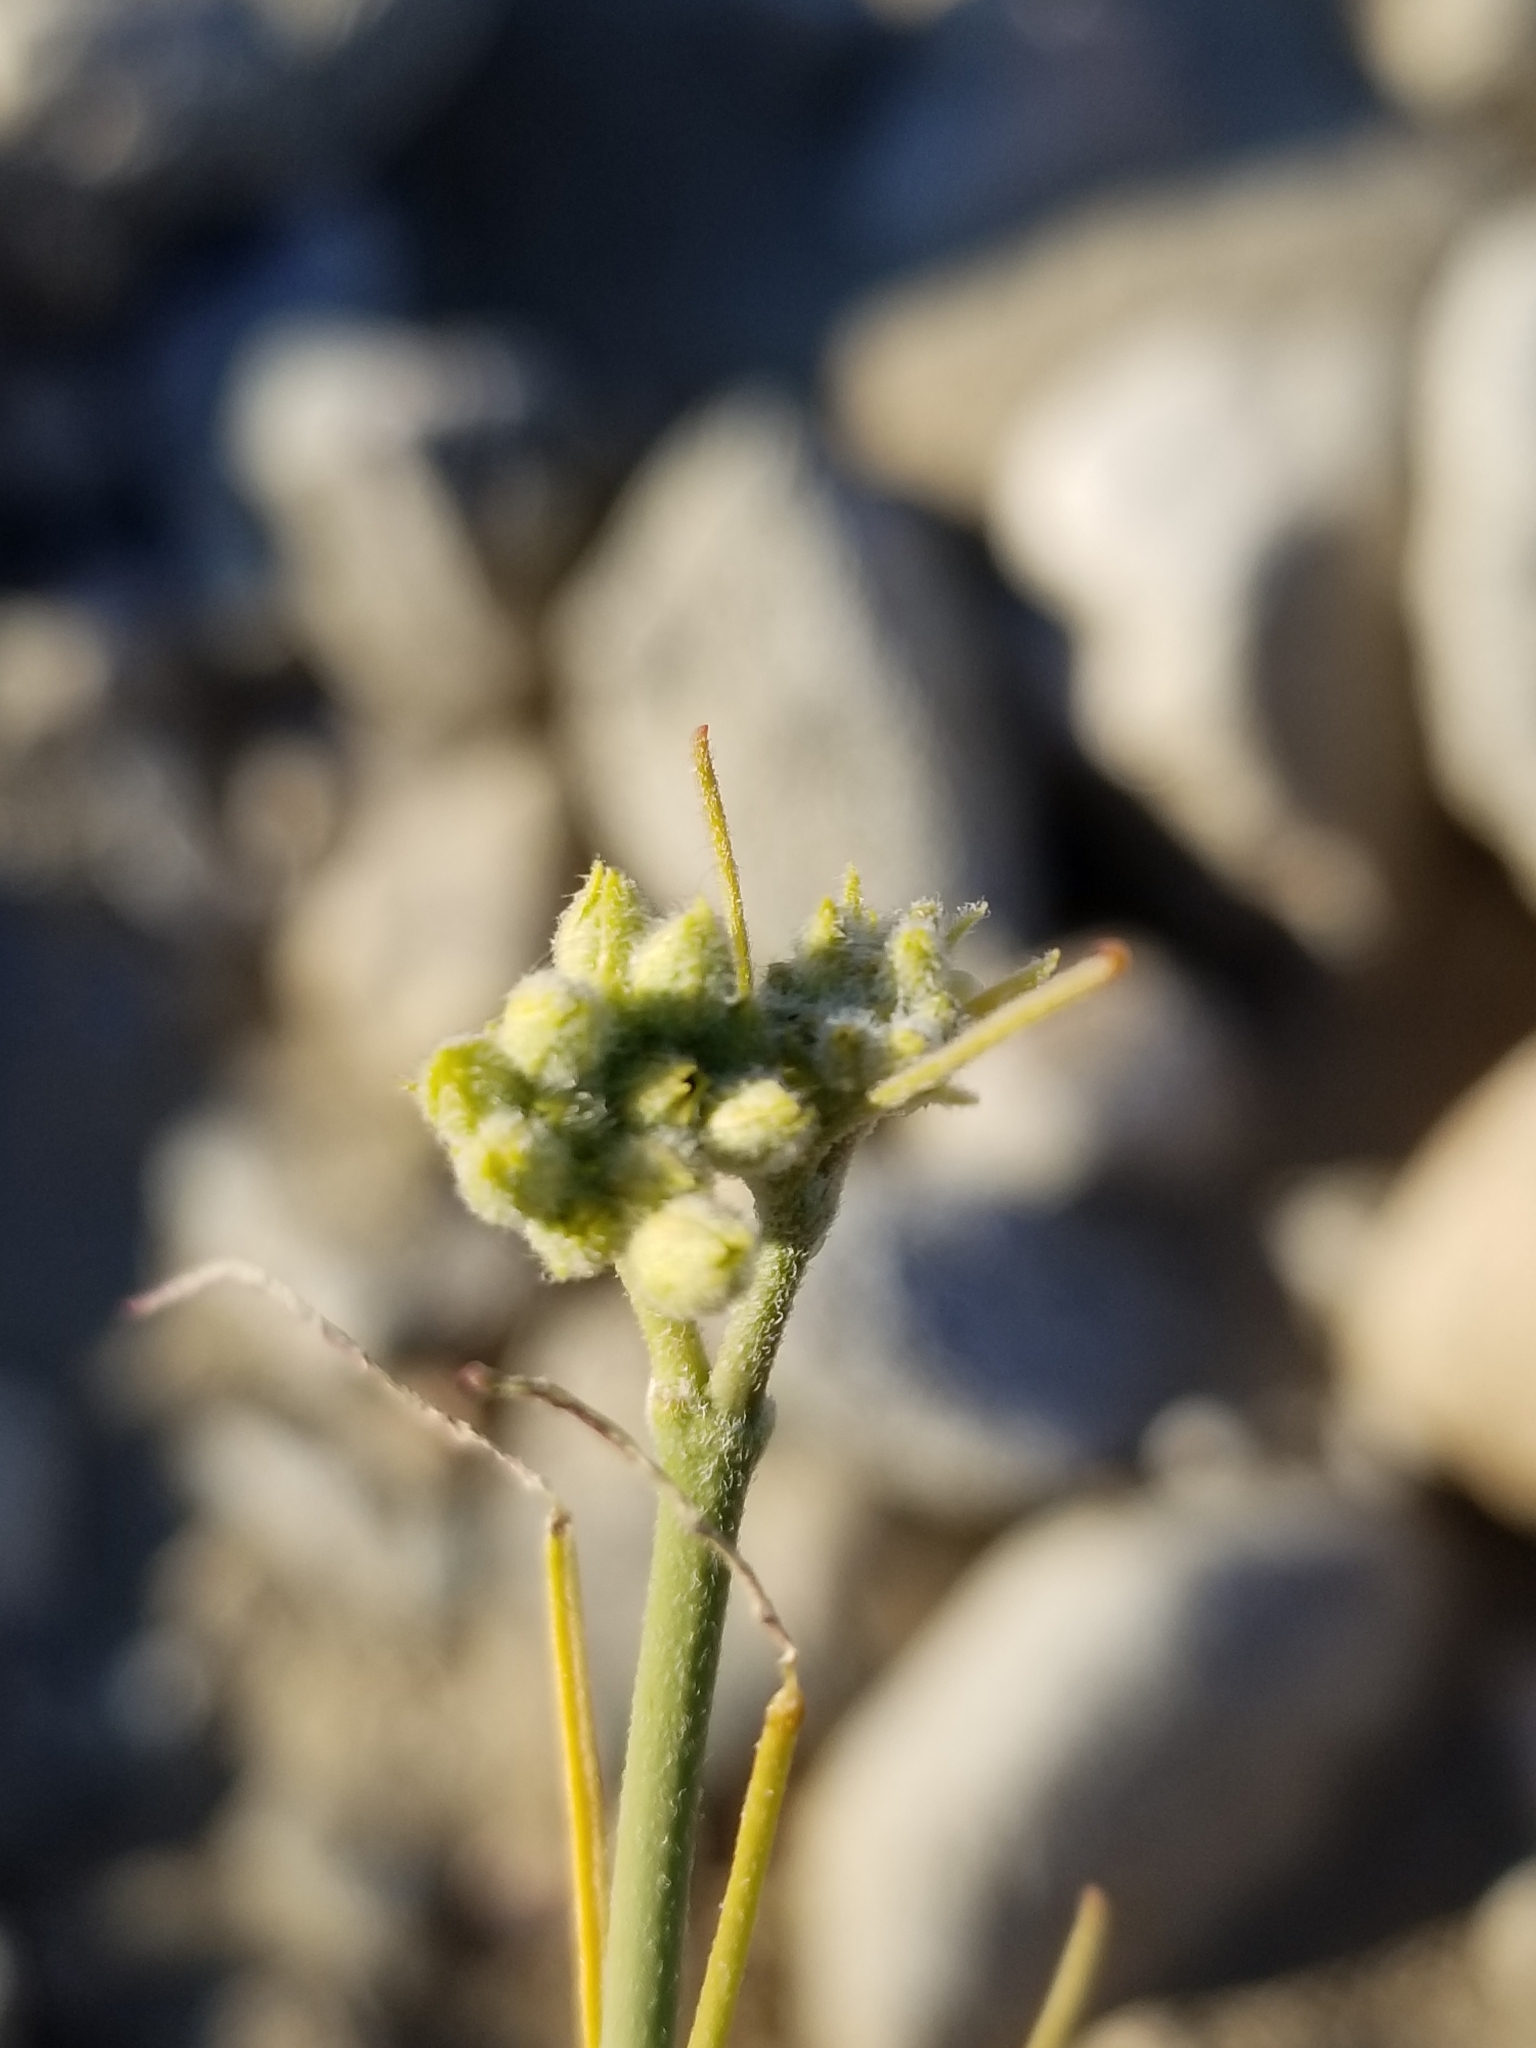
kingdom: Plantae
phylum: Tracheophyta
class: Magnoliopsida
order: Gentianales
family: Apocynaceae
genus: Asclepias
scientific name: Asclepias subulata
